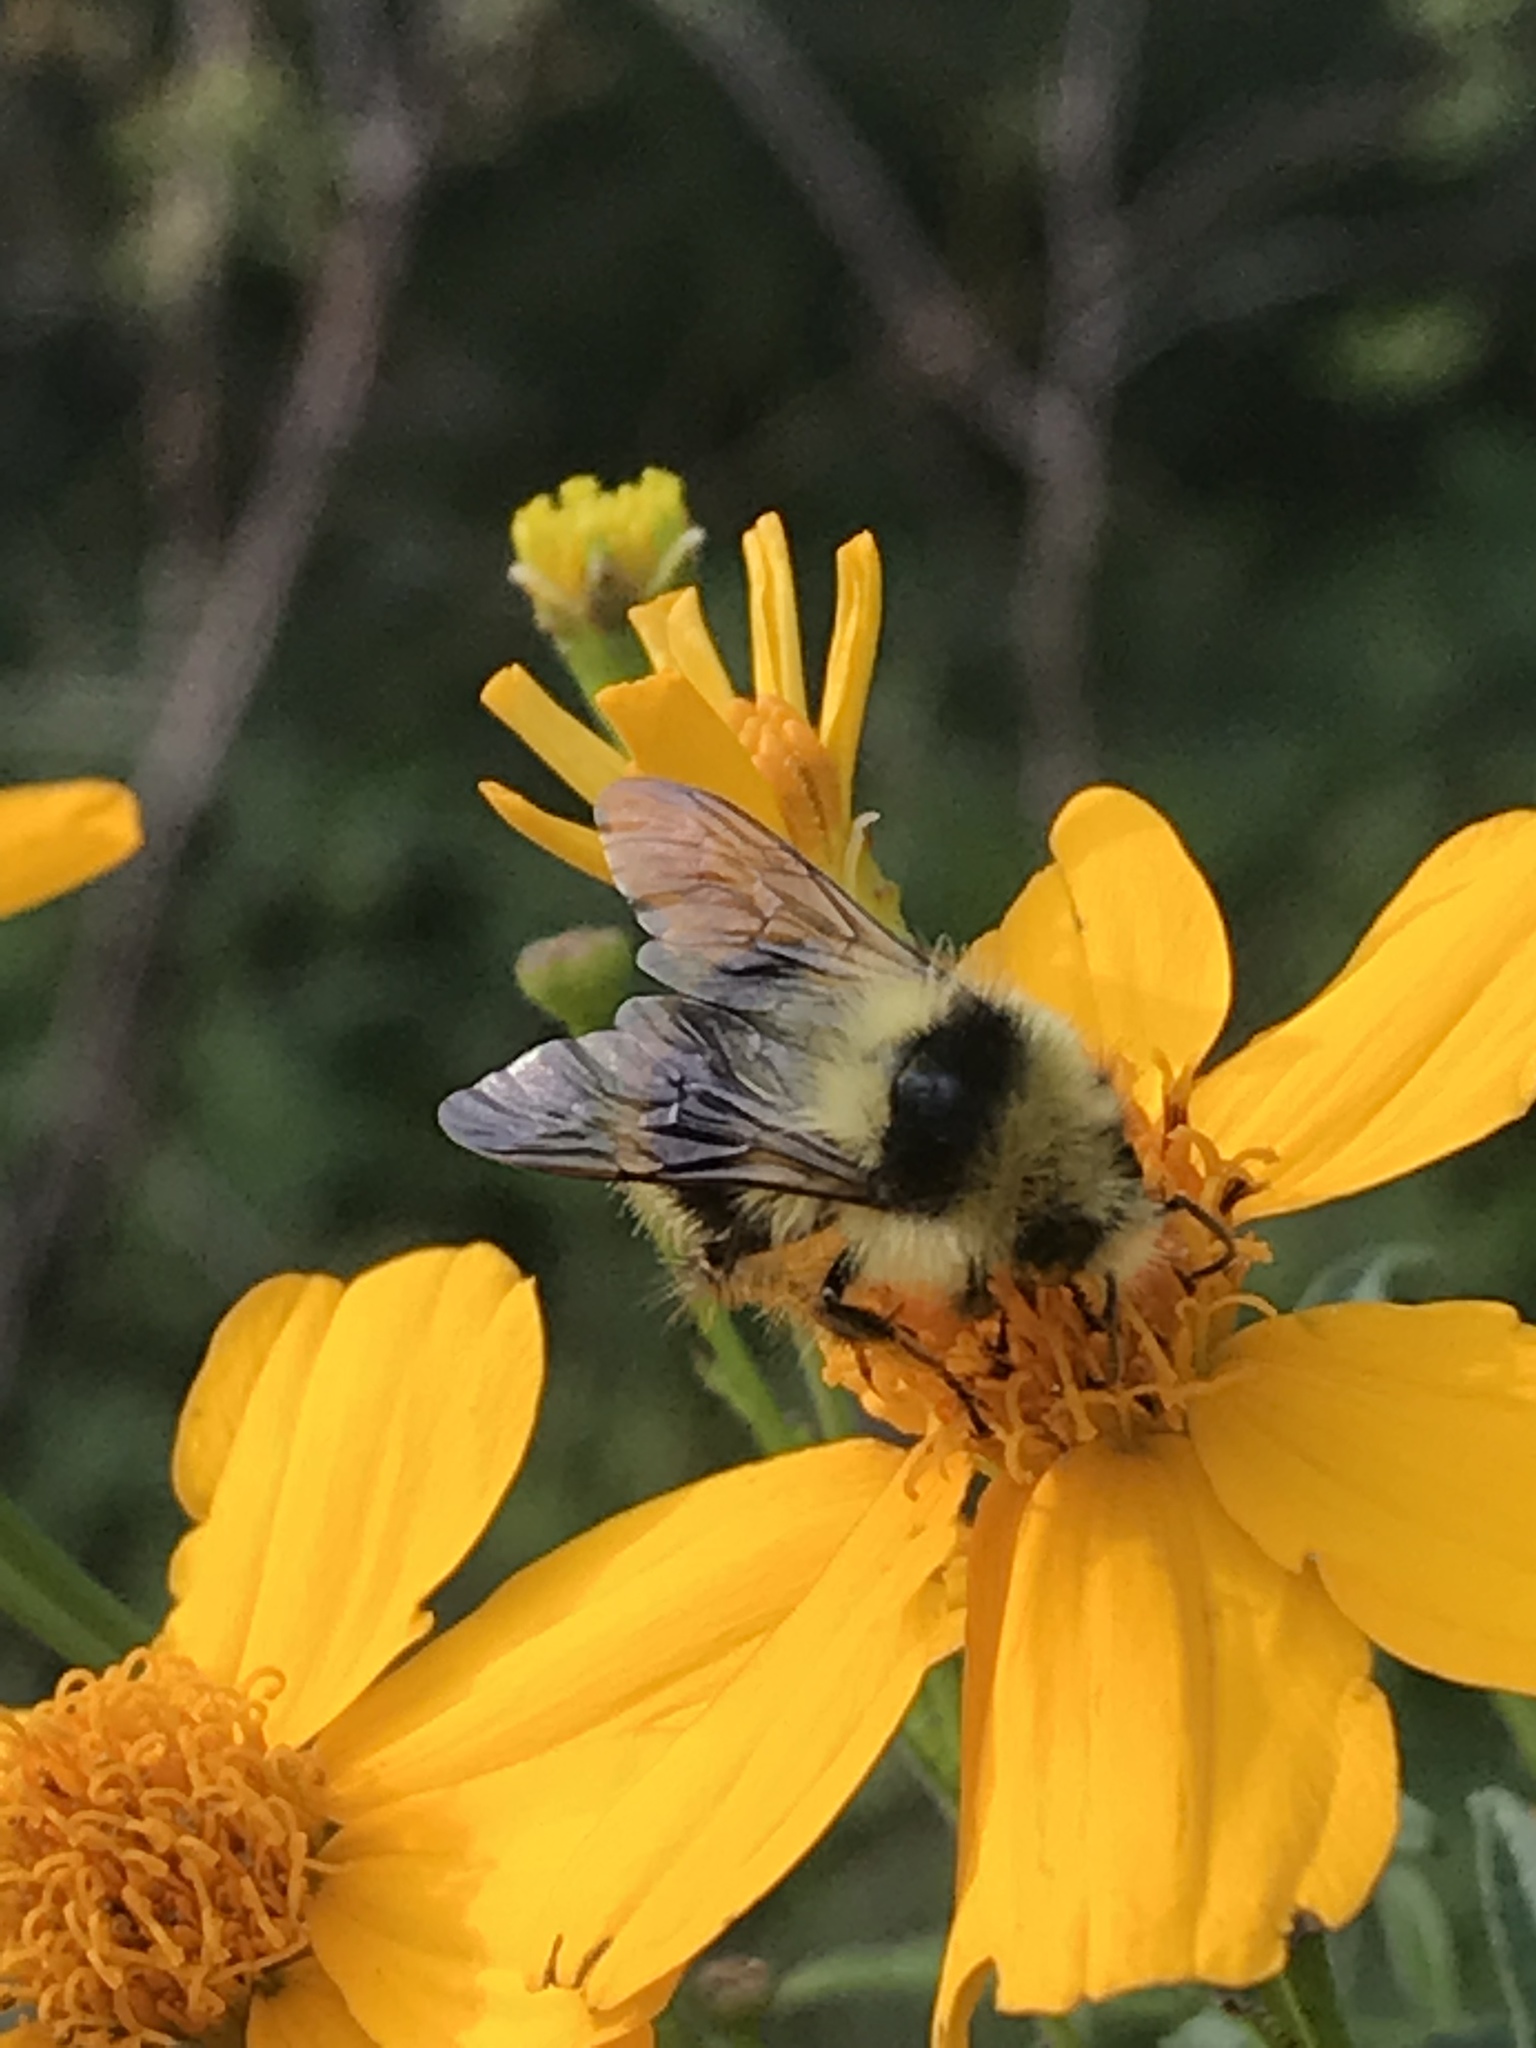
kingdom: Animalia
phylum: Arthropoda
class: Insecta
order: Hymenoptera
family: Apidae
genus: Bombus
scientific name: Bombus melanopygus
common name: Black tail bumble bee
